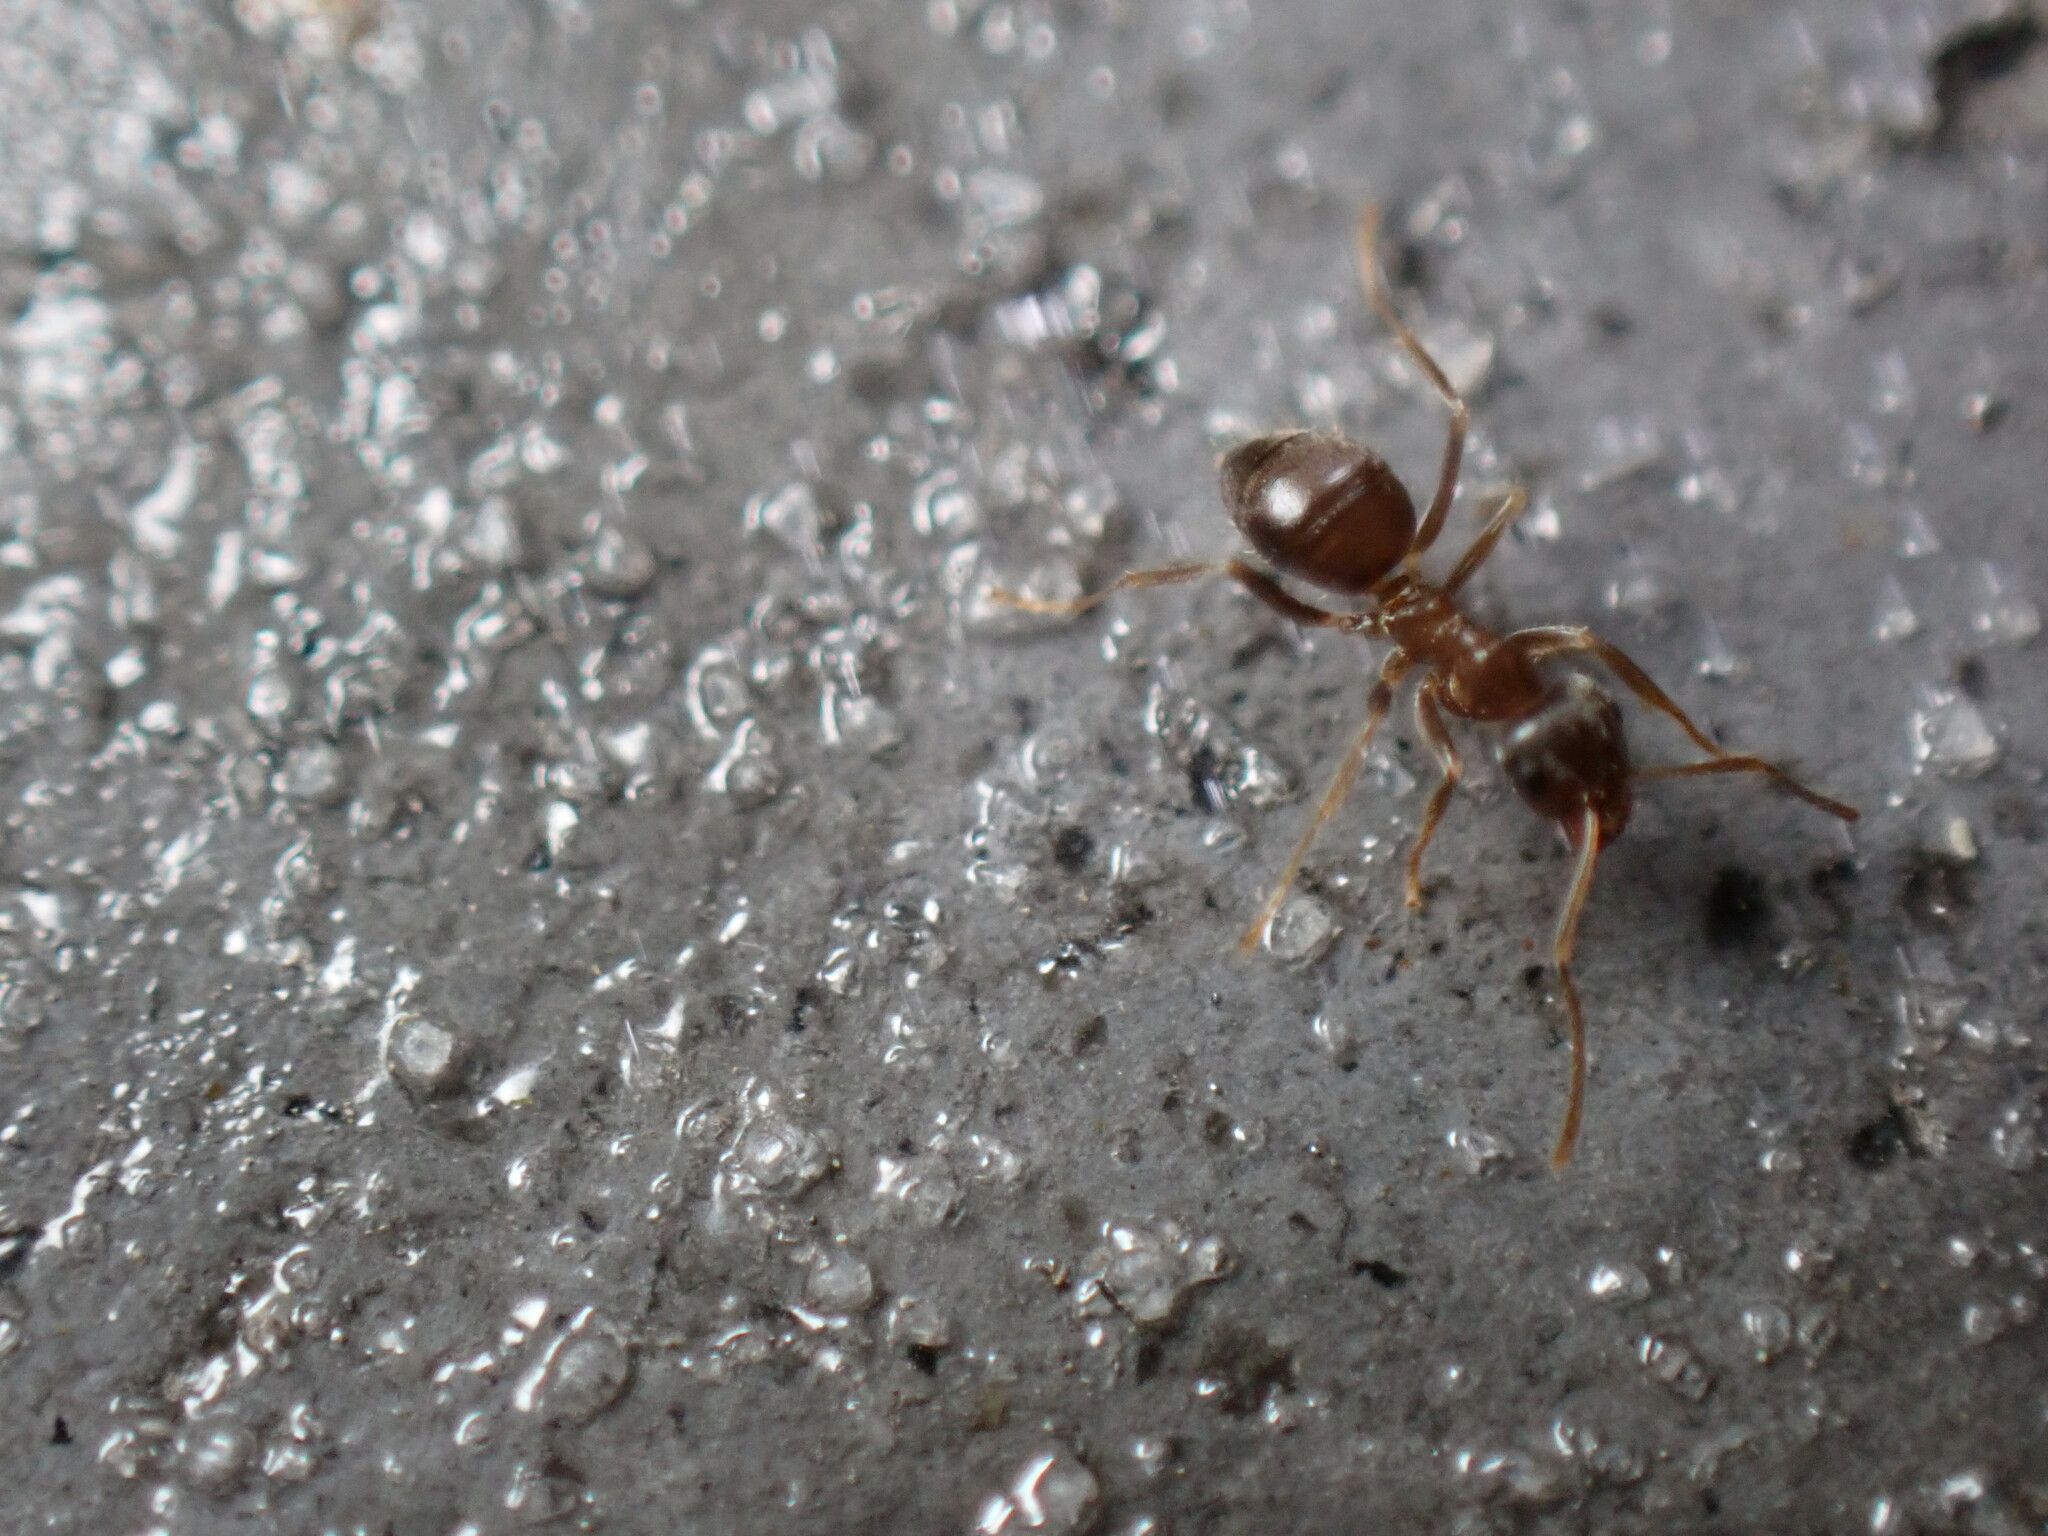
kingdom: Animalia
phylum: Arthropoda
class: Insecta
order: Hymenoptera
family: Formicidae
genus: Lasius
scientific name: Lasius japonicus
